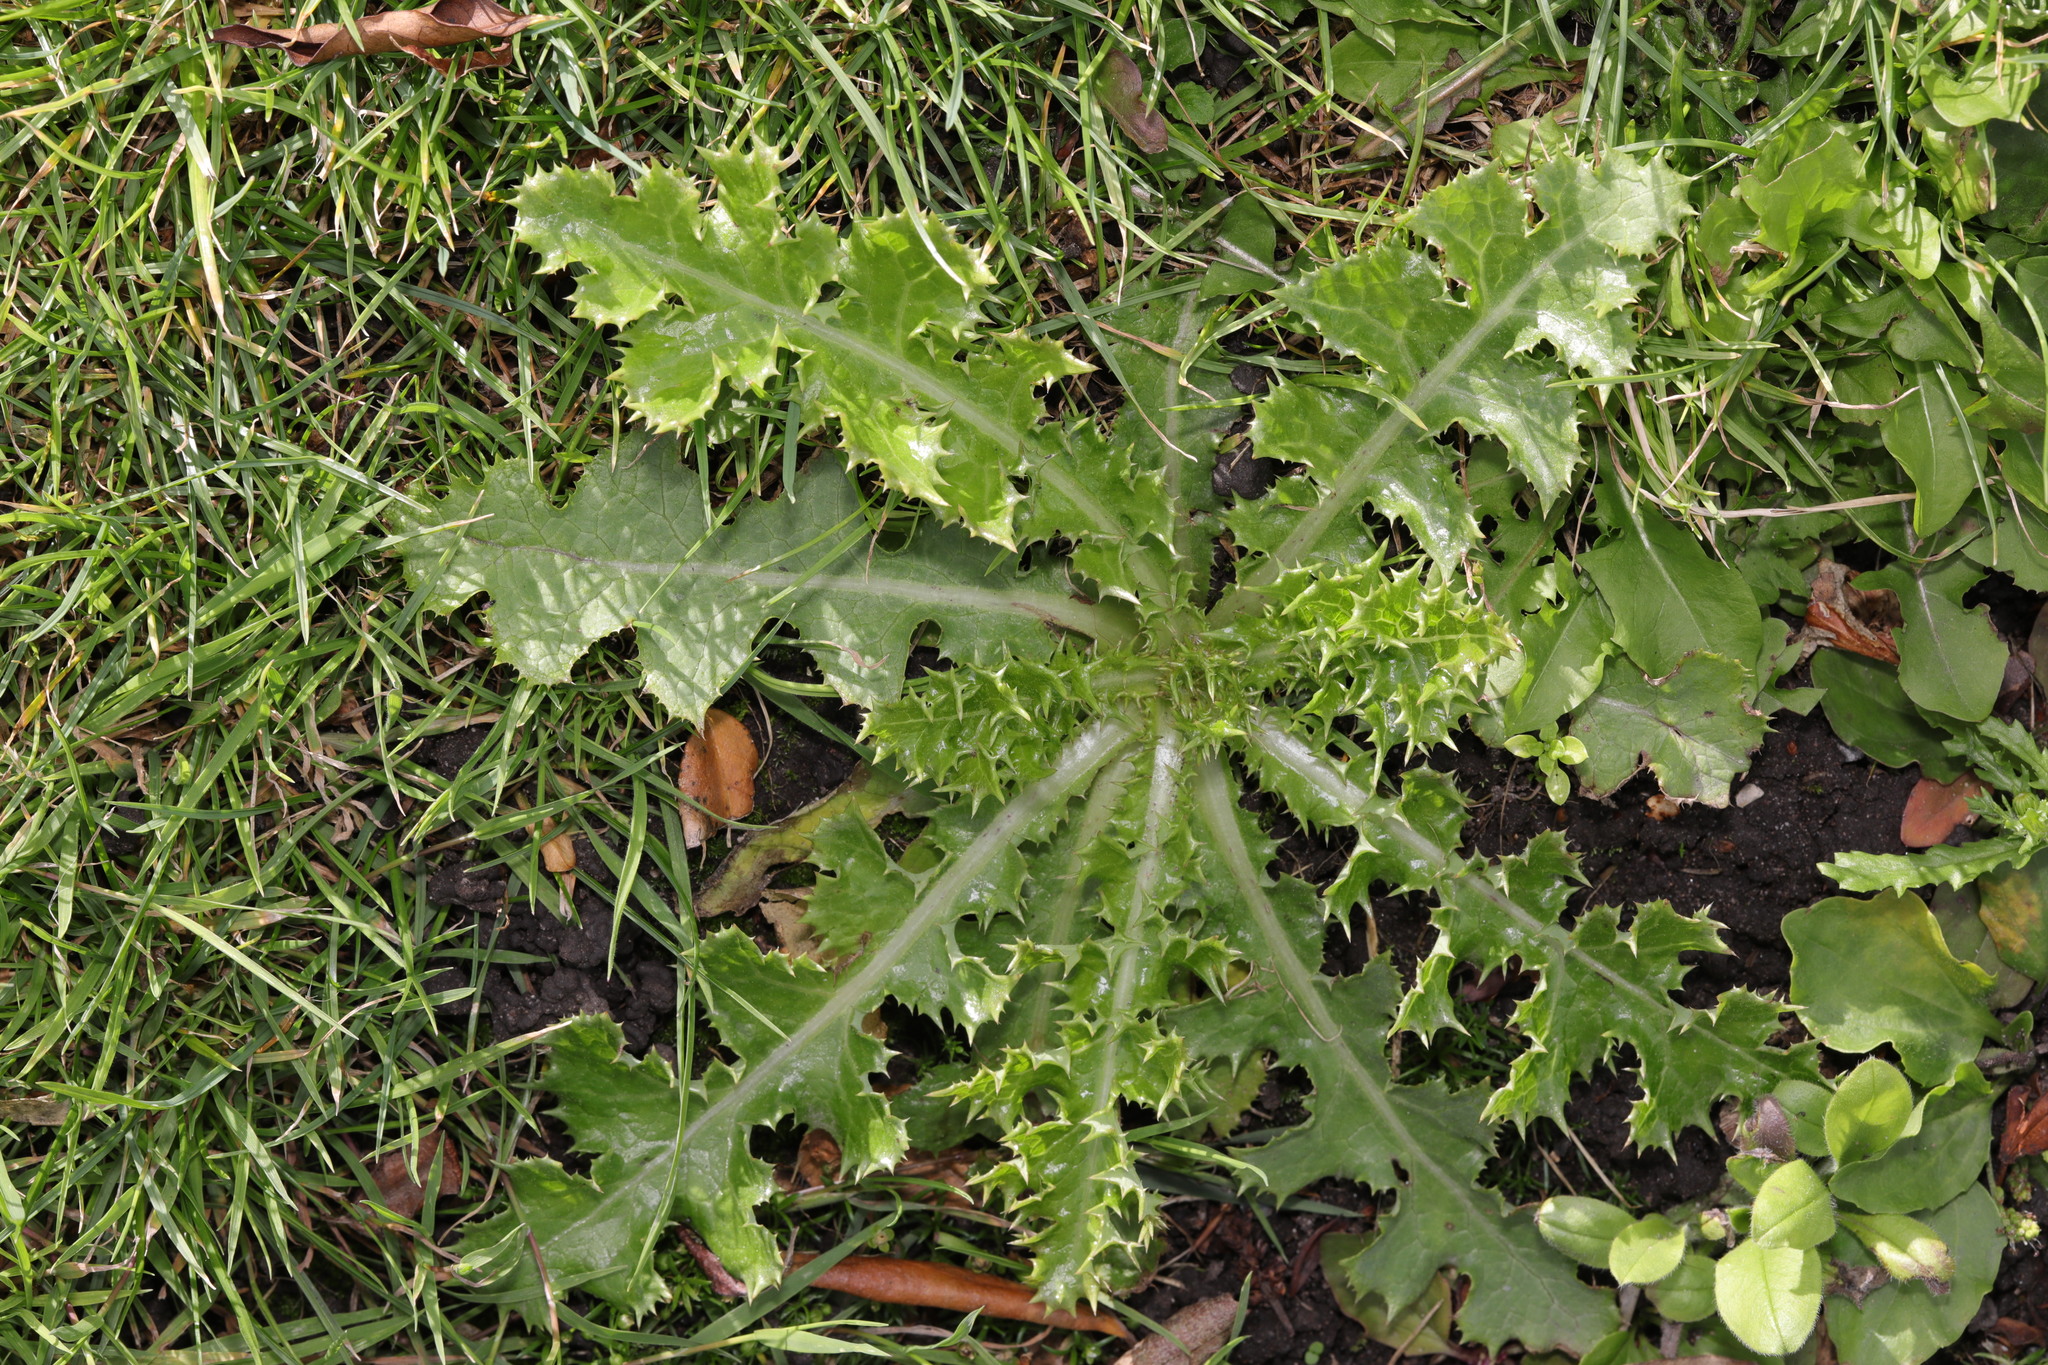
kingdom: Plantae
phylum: Tracheophyta
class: Magnoliopsida
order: Asterales
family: Asteraceae
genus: Sonchus
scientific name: Sonchus asper
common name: Prickly sow-thistle
